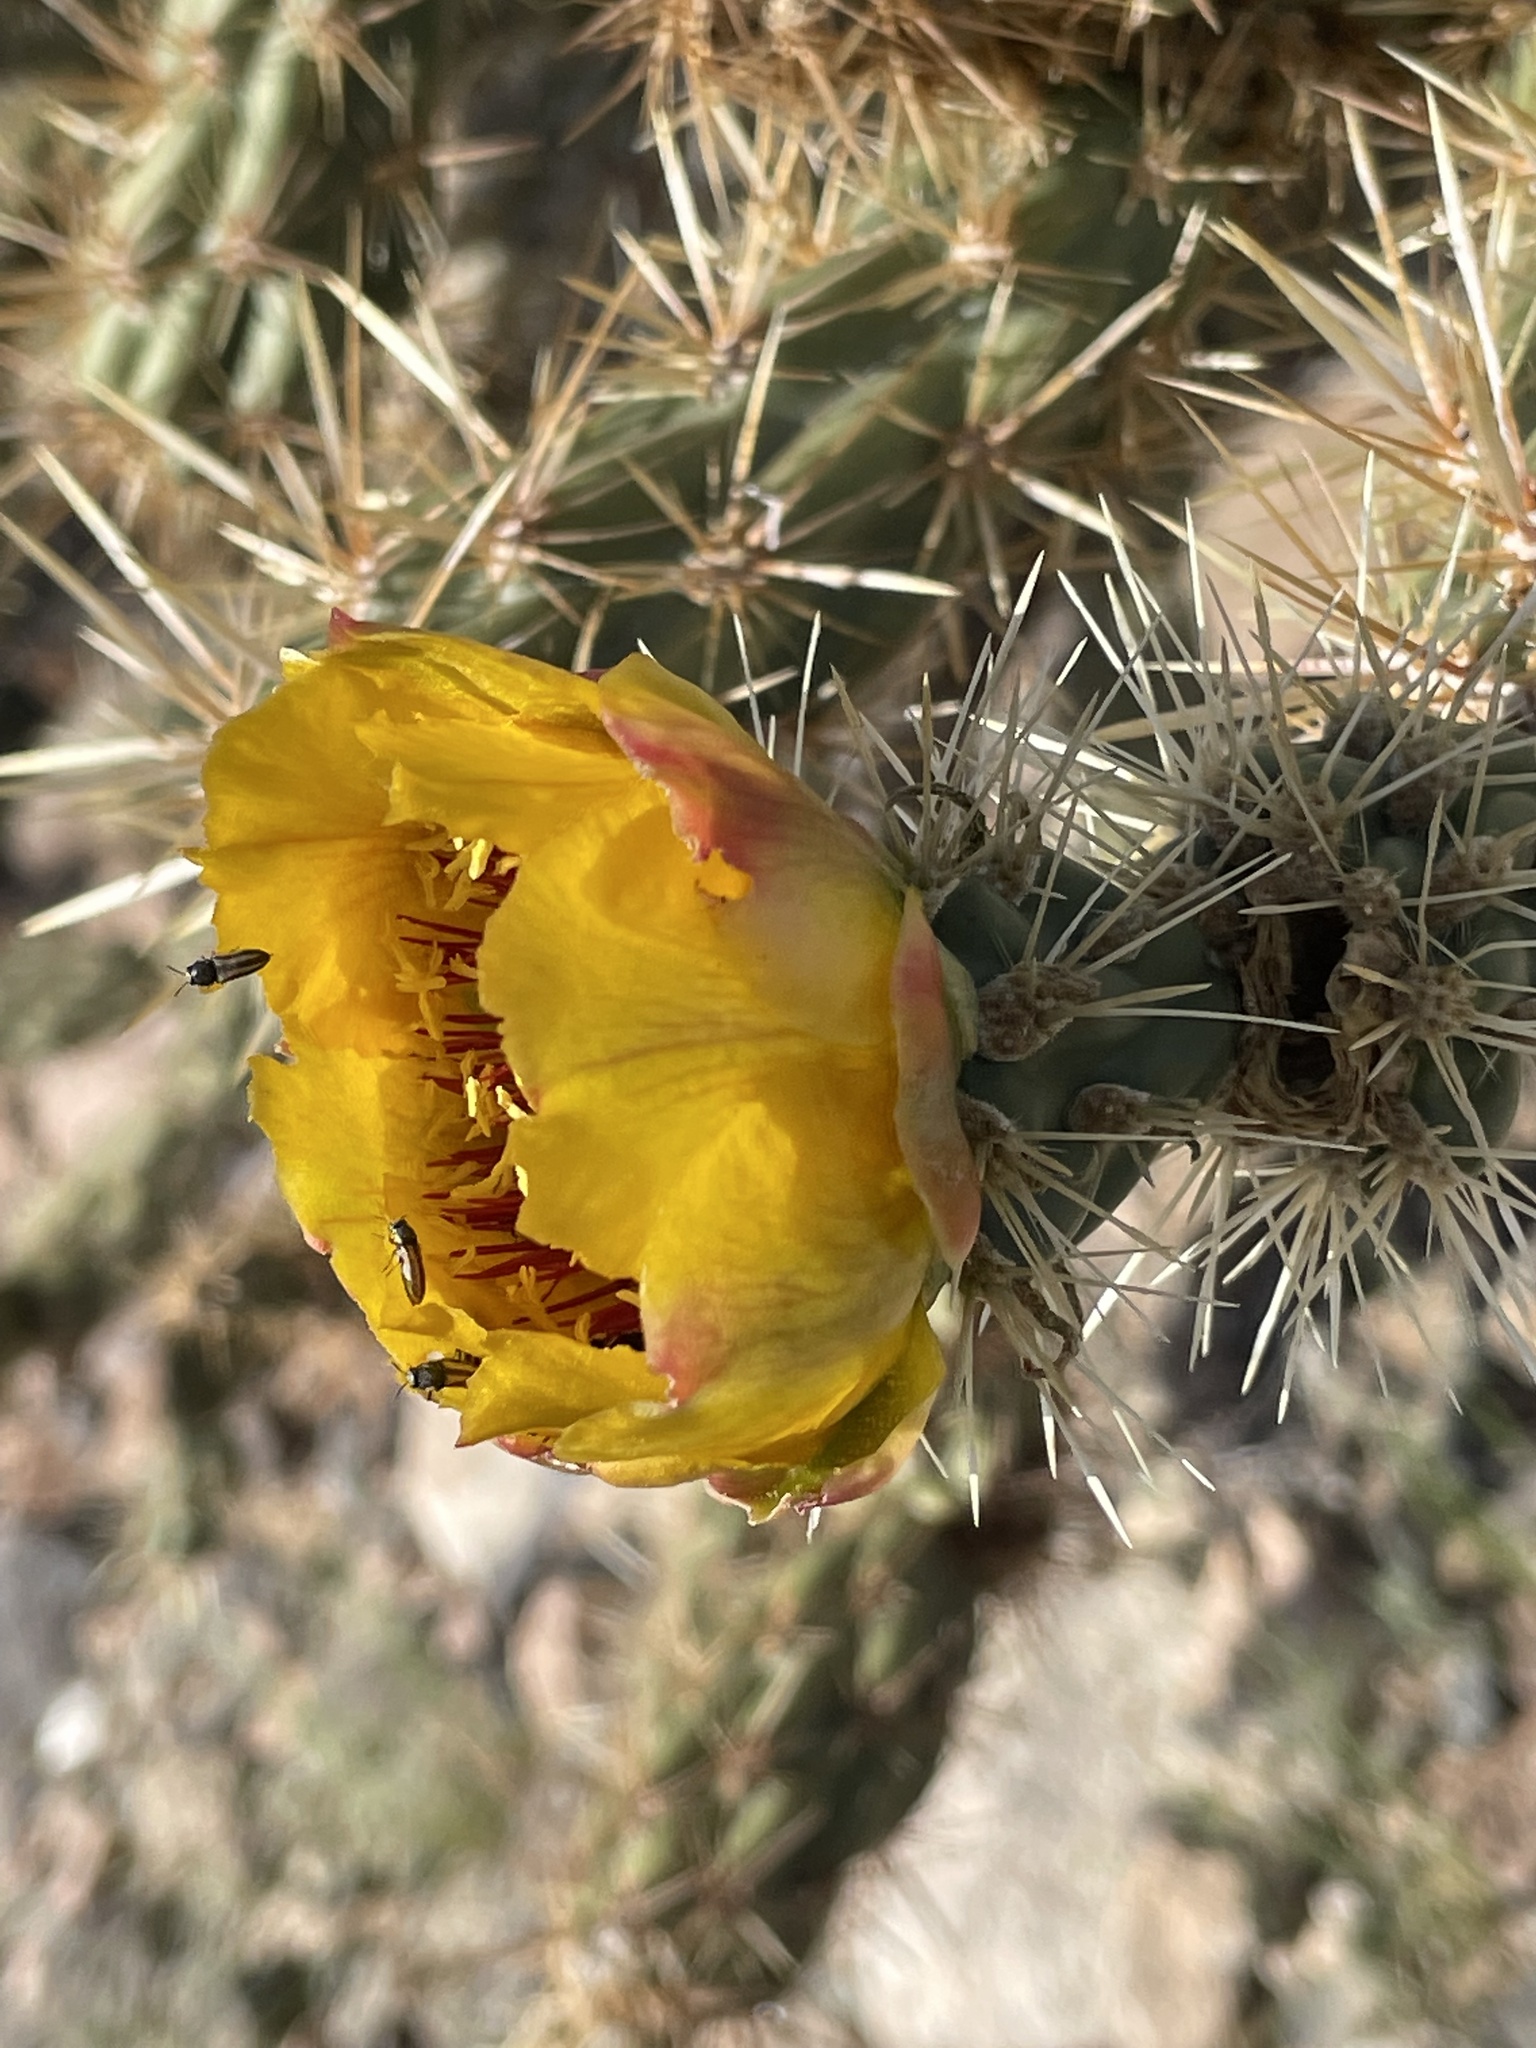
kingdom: Plantae
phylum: Tracheophyta
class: Magnoliopsida
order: Caryophyllales
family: Cactaceae
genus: Cylindropuntia
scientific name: Cylindropuntia acanthocarpa
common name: Buckhorn cholla
